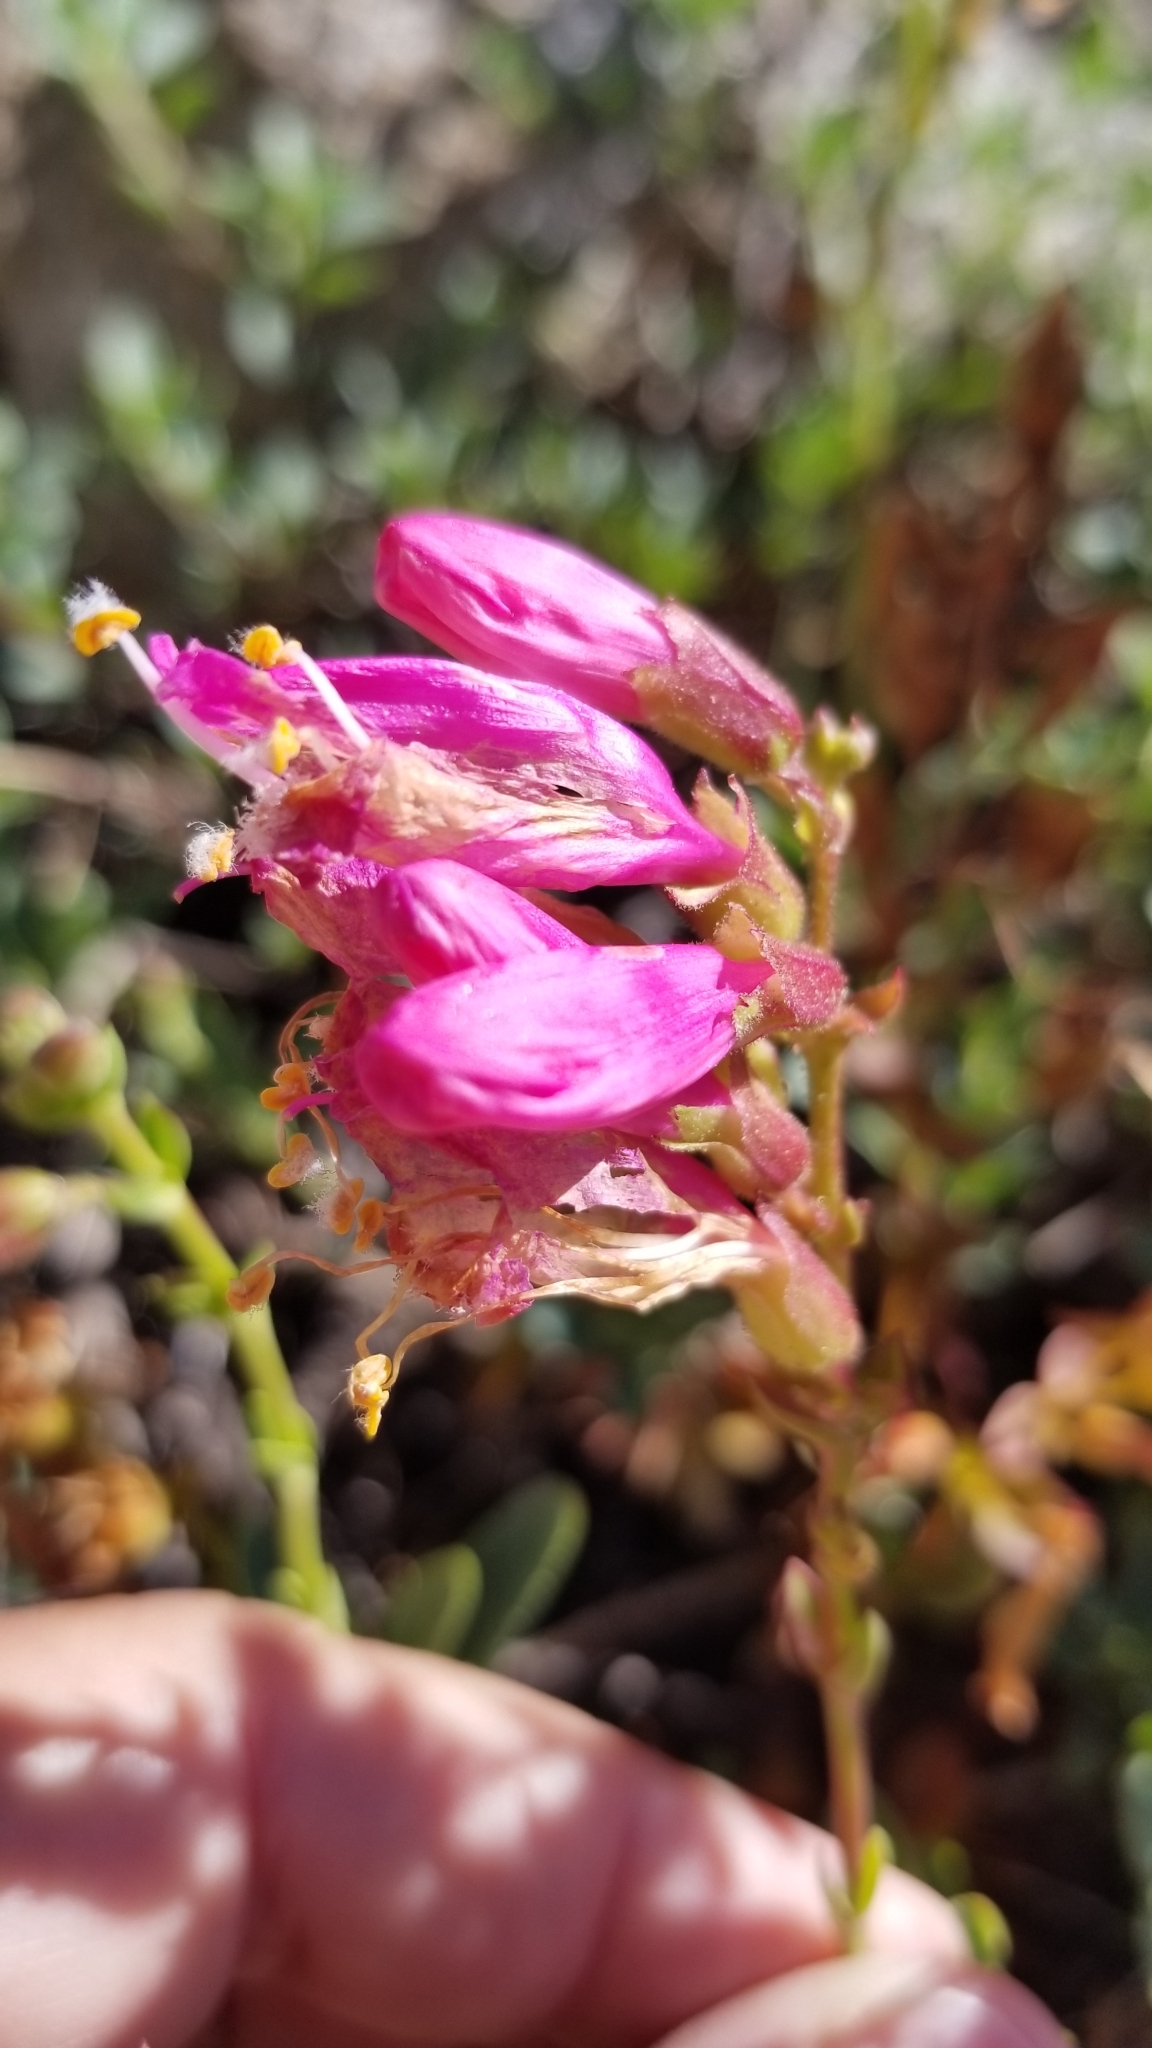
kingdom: Plantae
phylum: Tracheophyta
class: Magnoliopsida
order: Lamiales
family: Plantaginaceae
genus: Penstemon
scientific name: Penstemon newberryi
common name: Mountain-pride
